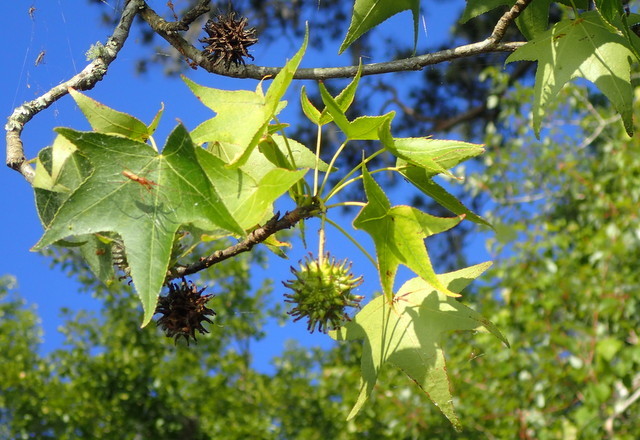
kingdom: Plantae
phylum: Tracheophyta
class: Magnoliopsida
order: Saxifragales
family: Altingiaceae
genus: Liquidambar
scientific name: Liquidambar styraciflua
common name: Sweet gum
